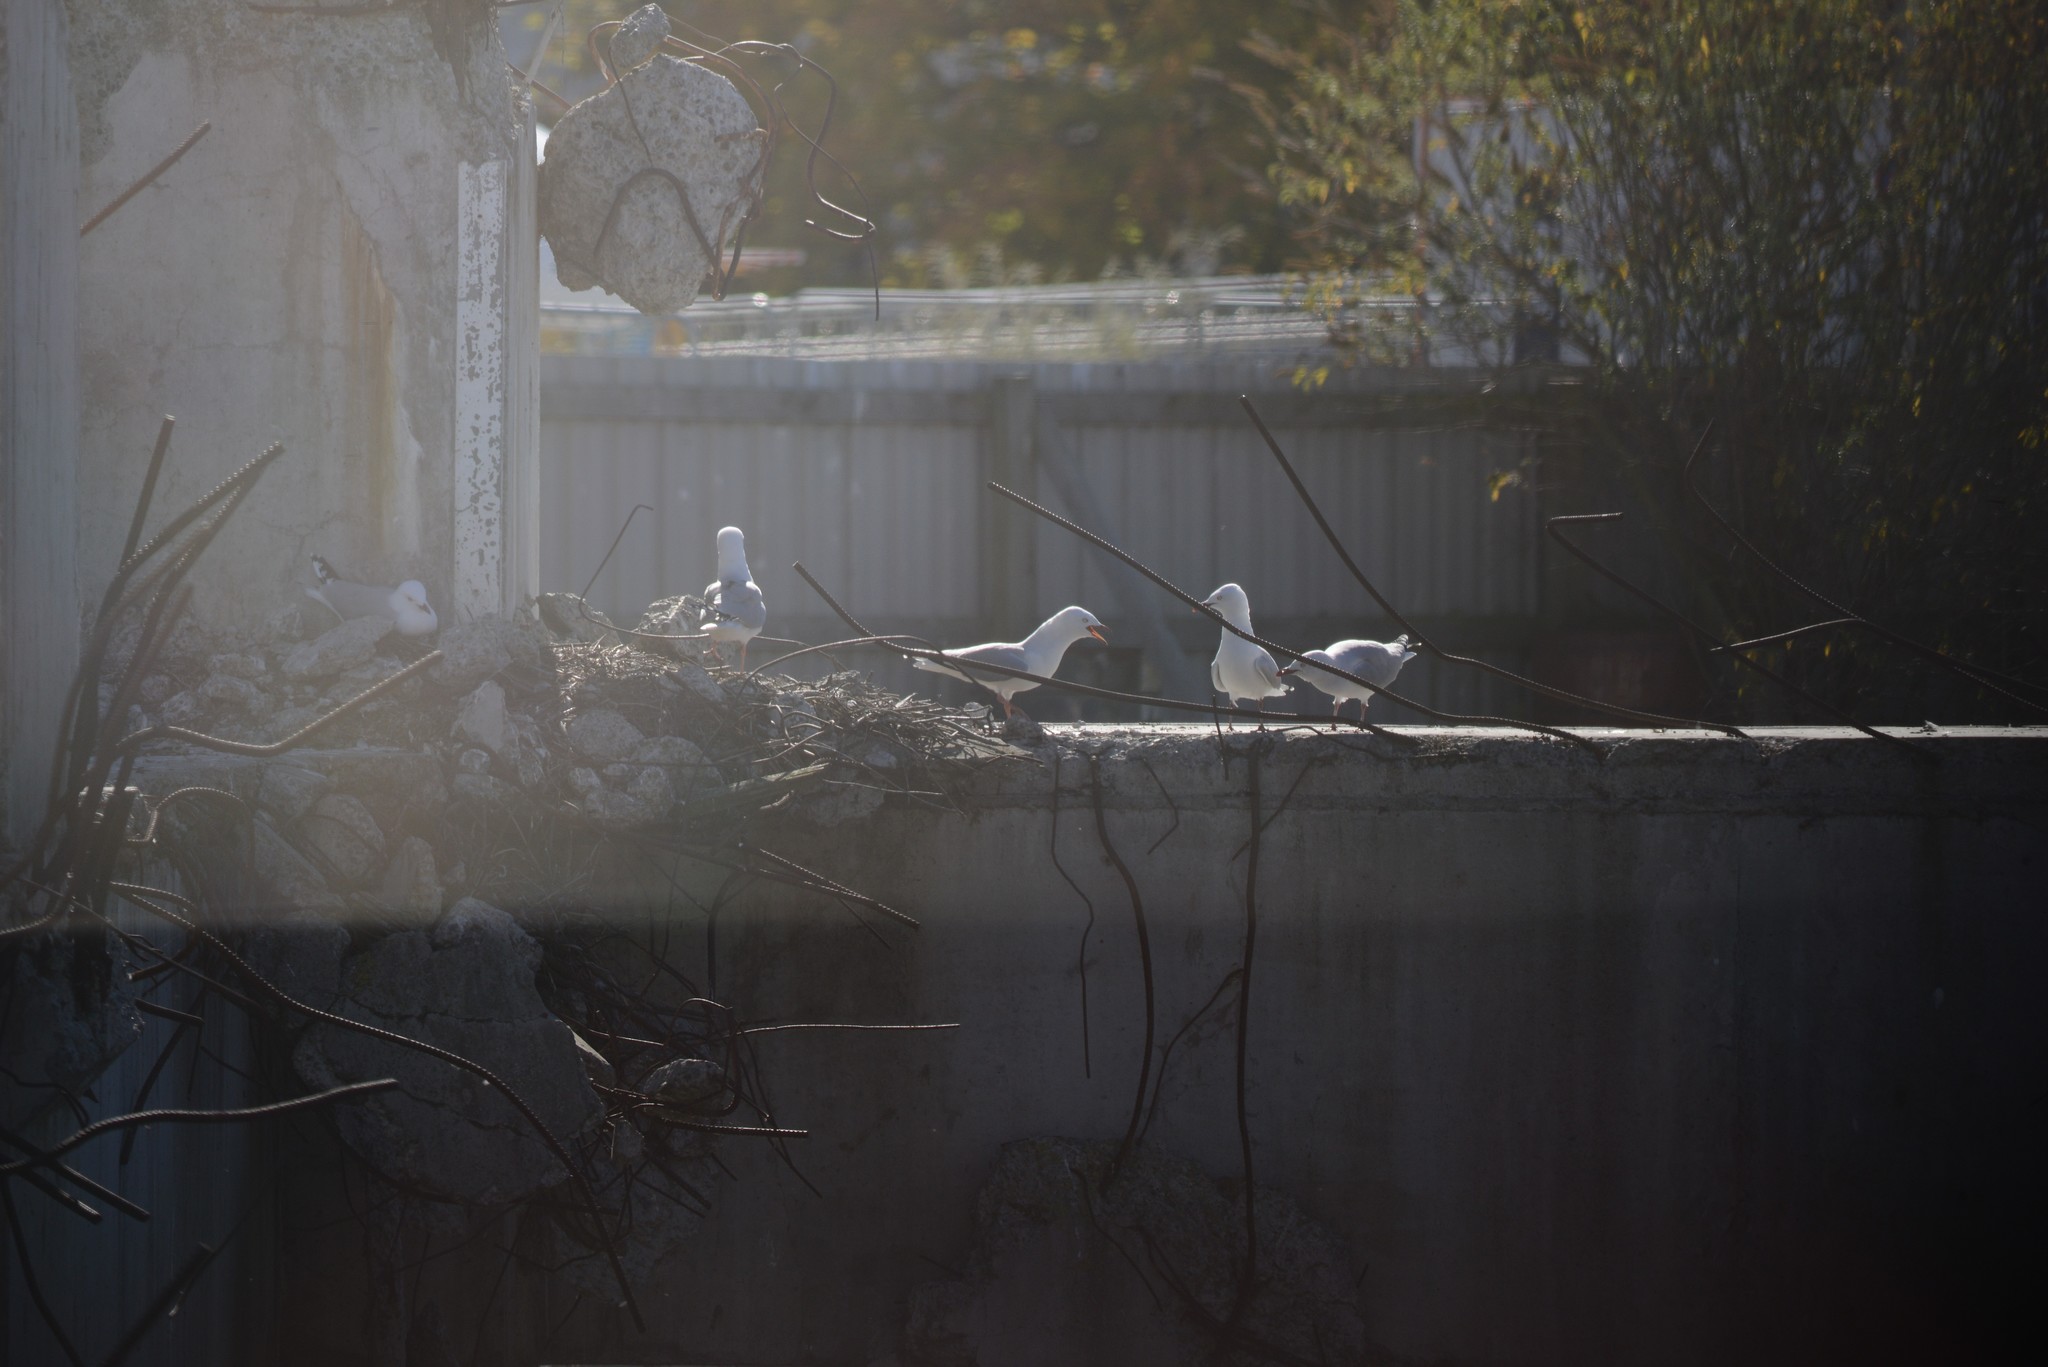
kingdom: Animalia
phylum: Chordata
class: Aves
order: Charadriiformes
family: Laridae
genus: Chroicocephalus
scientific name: Chroicocephalus novaehollandiae
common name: Silver gull
